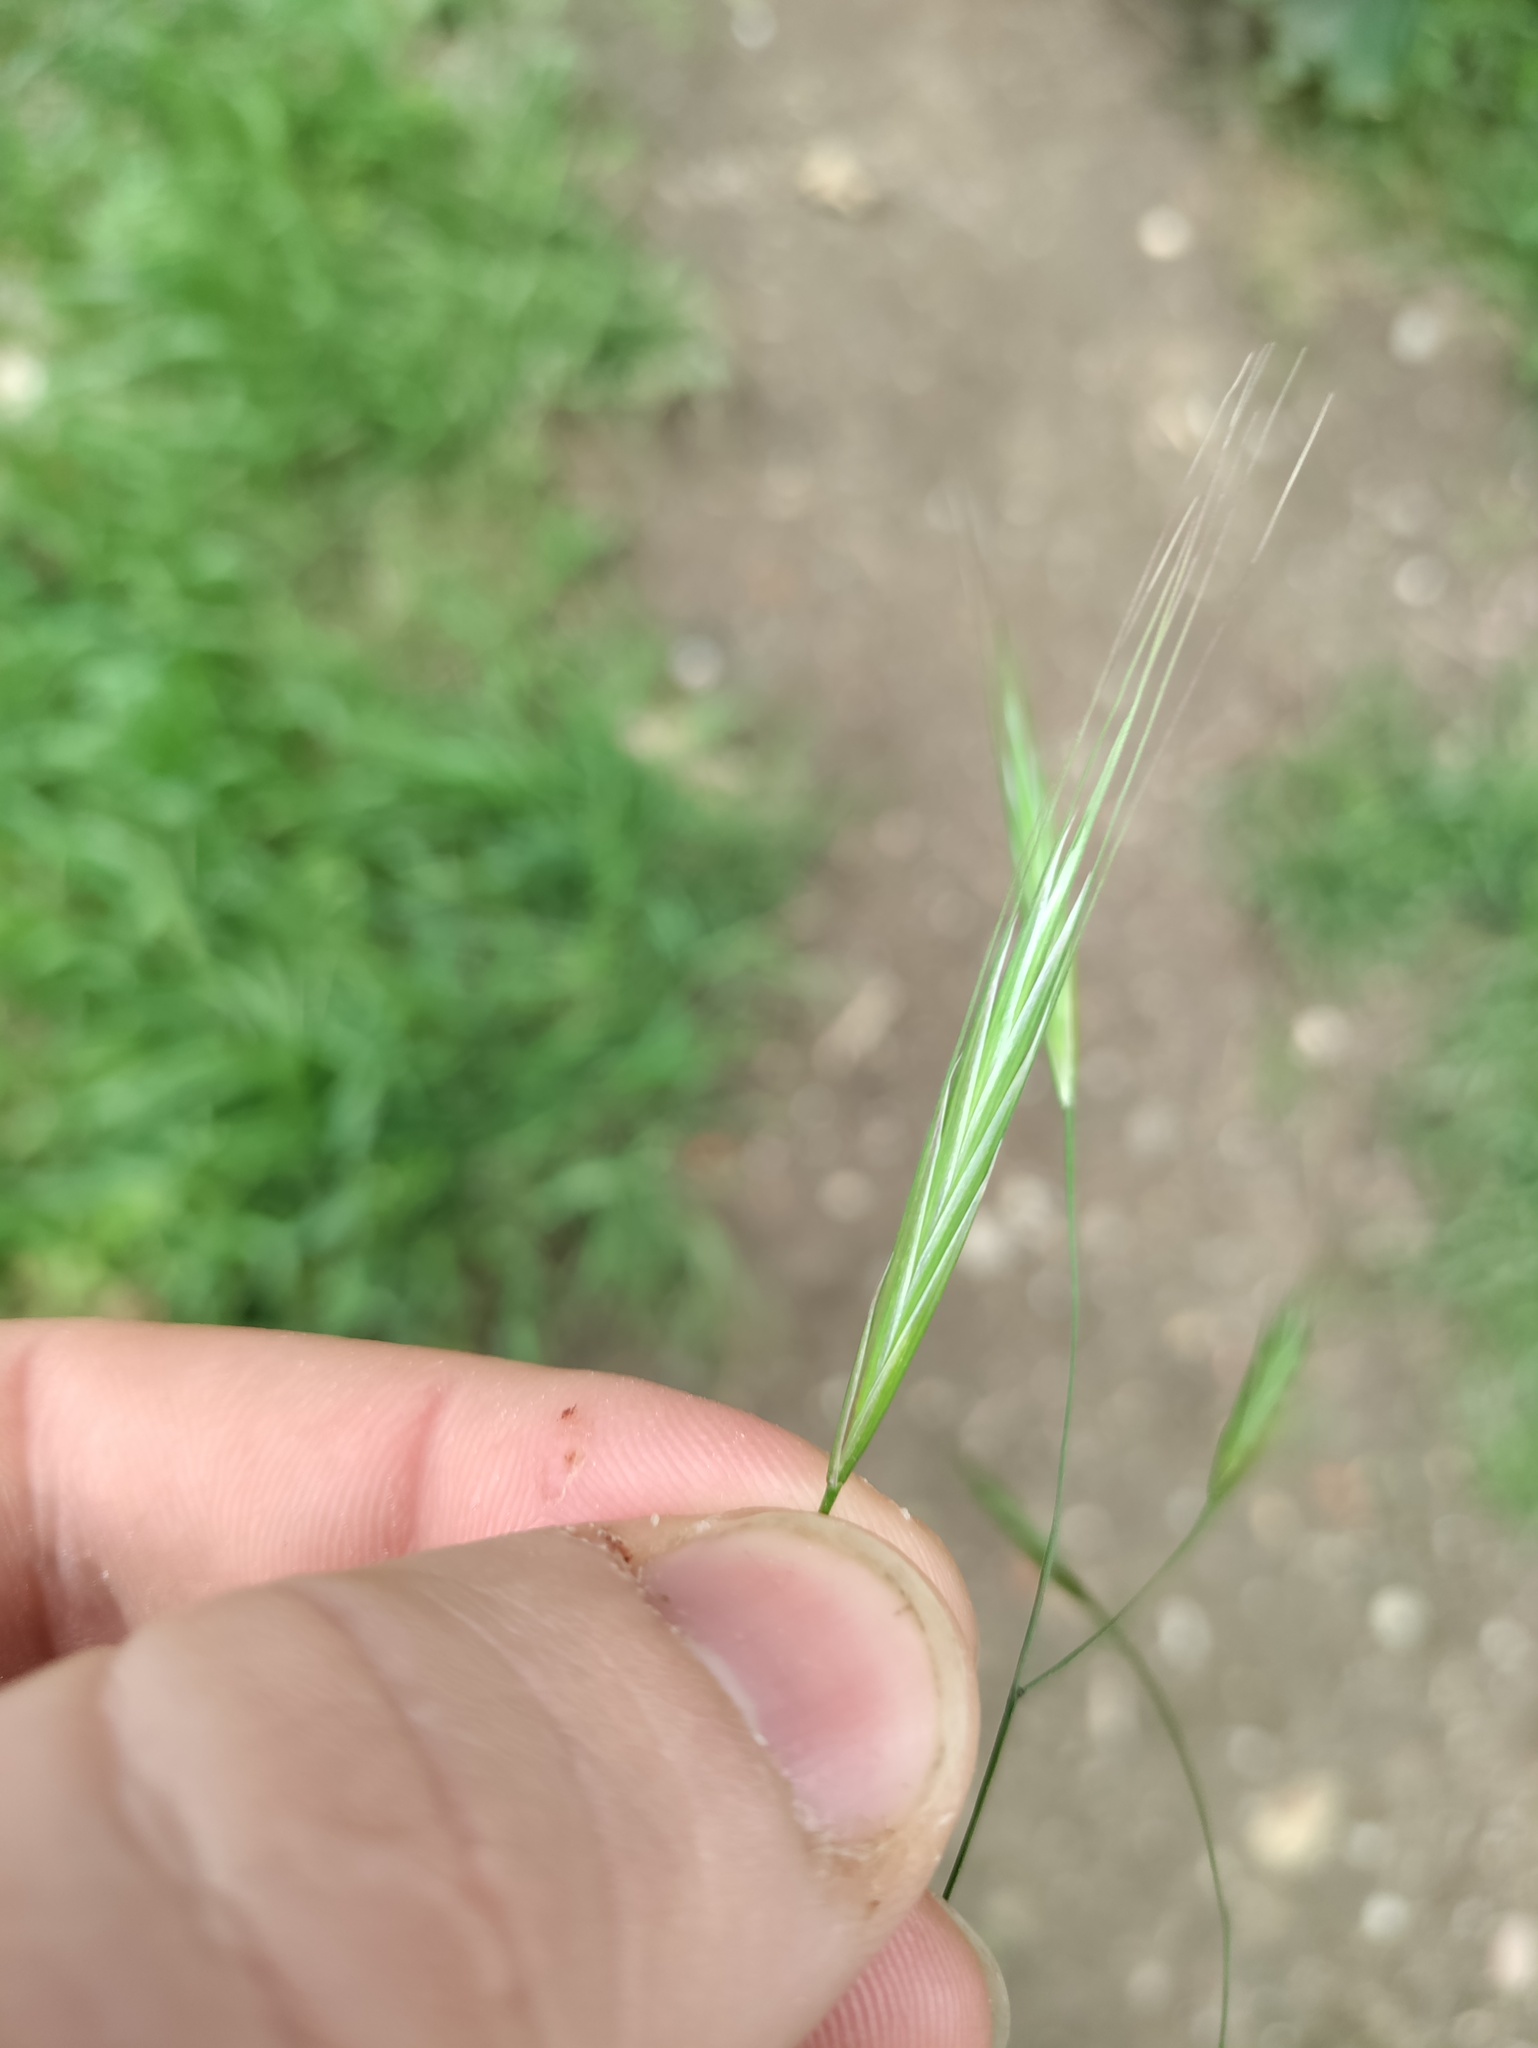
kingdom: Plantae
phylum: Tracheophyta
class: Liliopsida
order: Poales
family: Poaceae
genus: Bromus
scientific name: Bromus sterilis
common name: Poverty brome
